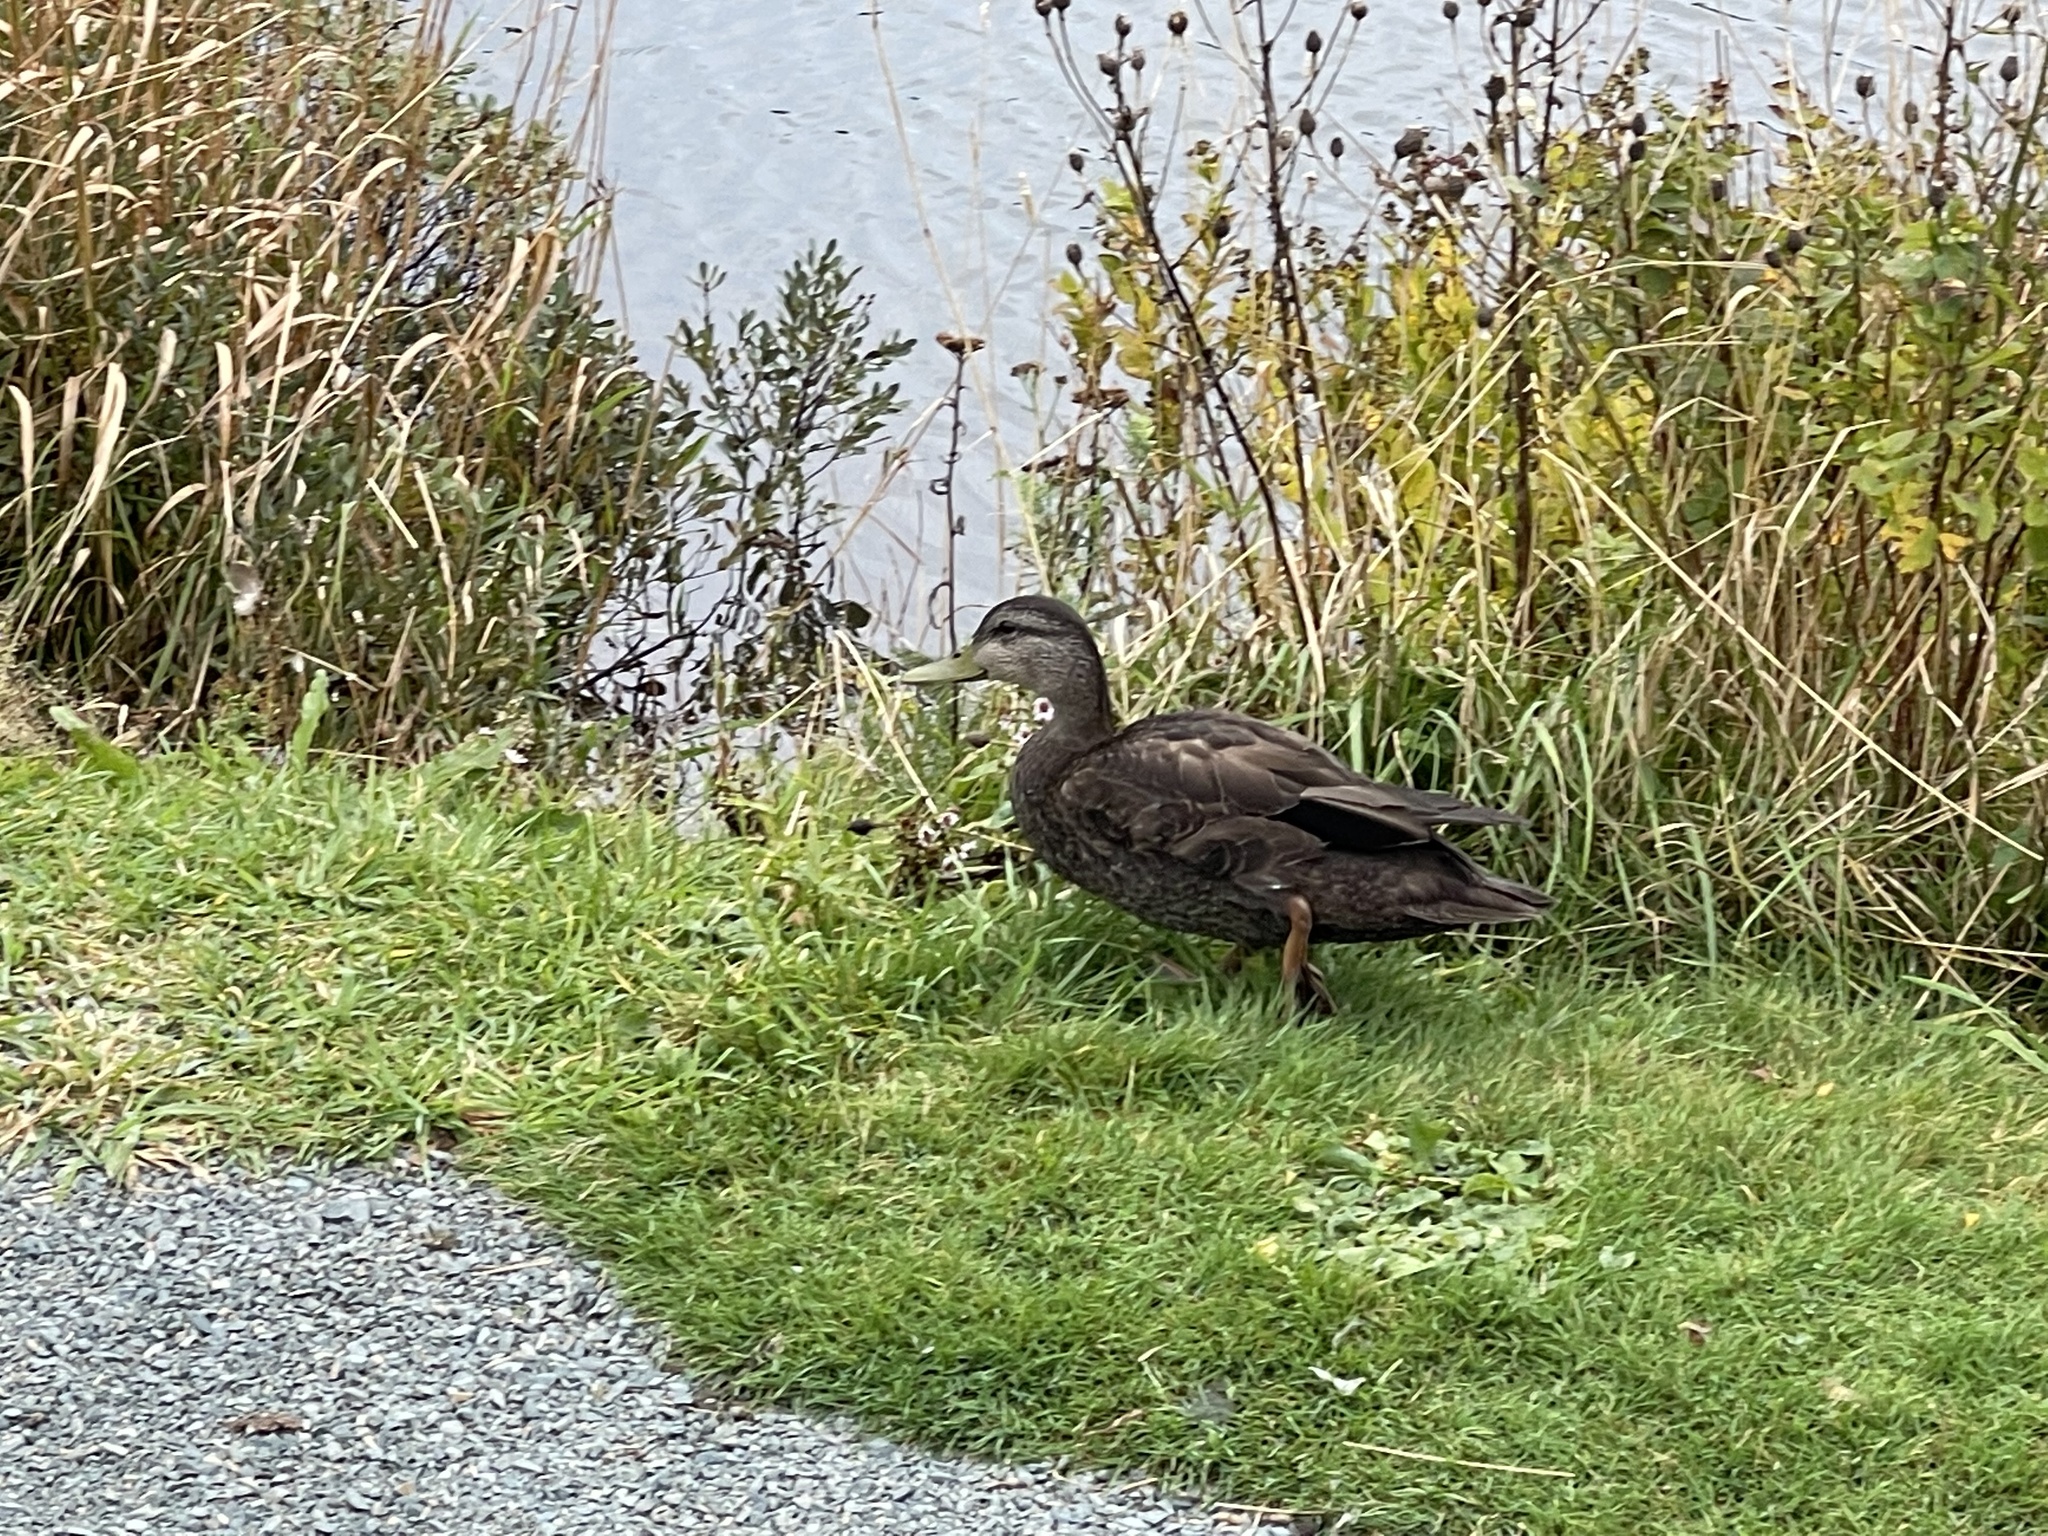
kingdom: Animalia
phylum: Chordata
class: Aves
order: Anseriformes
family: Anatidae
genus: Anas
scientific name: Anas rubripes
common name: American black duck
